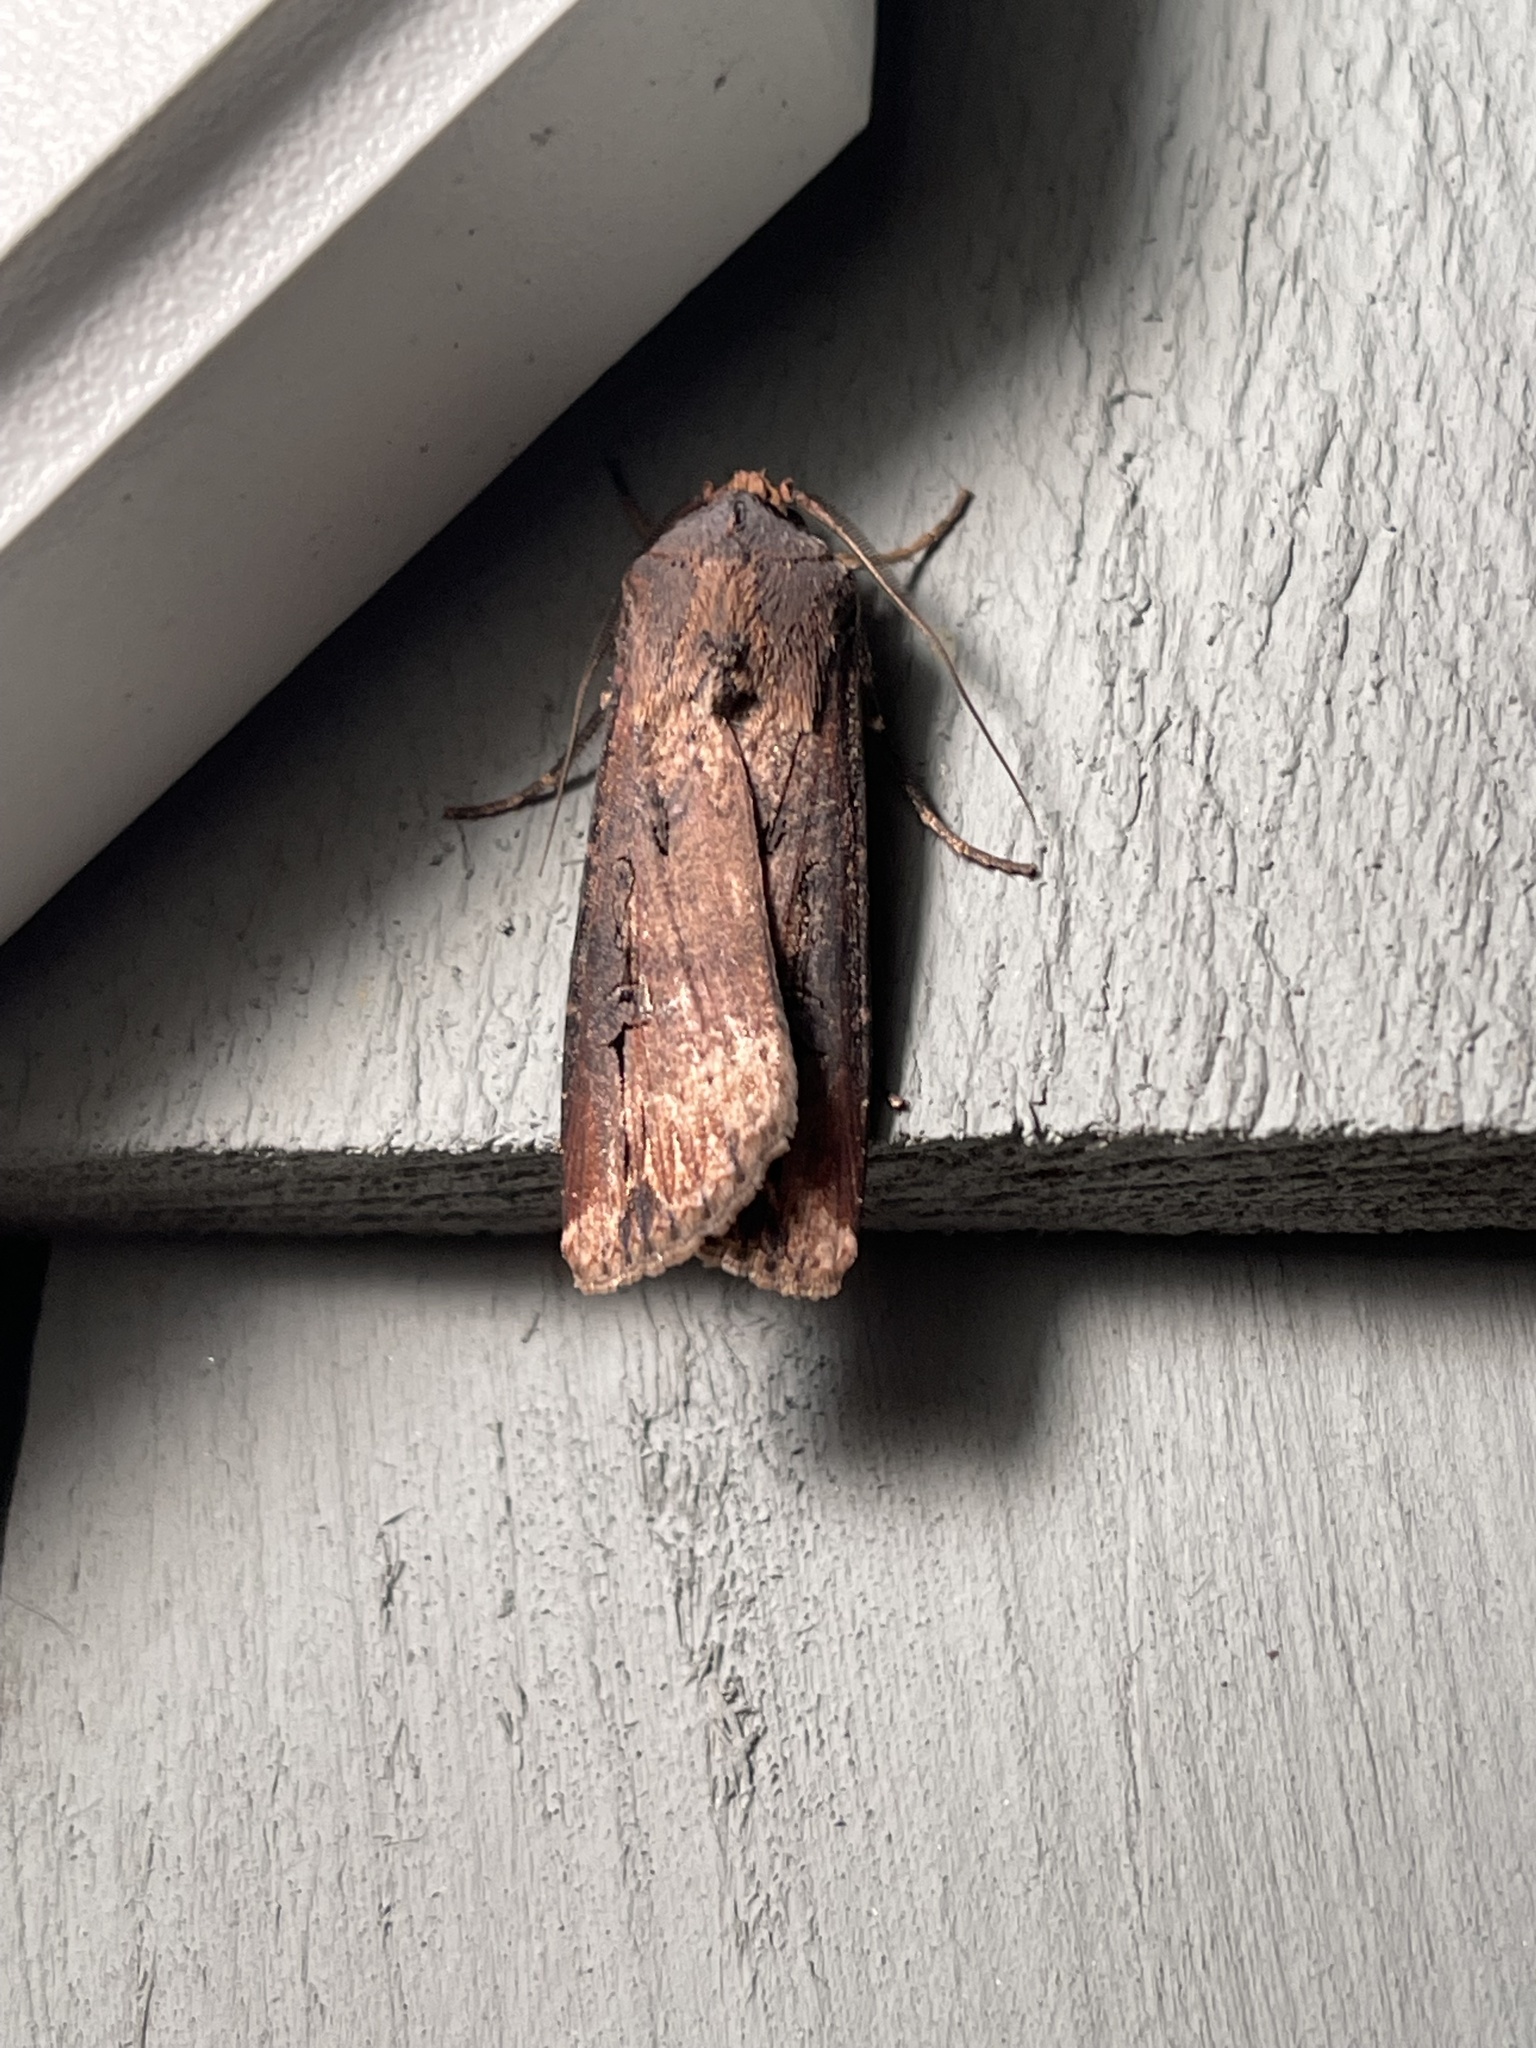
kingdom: Animalia
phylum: Arthropoda
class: Insecta
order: Lepidoptera
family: Noctuidae
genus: Agrotis
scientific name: Agrotis ipsilon
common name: Dark sword-grass
